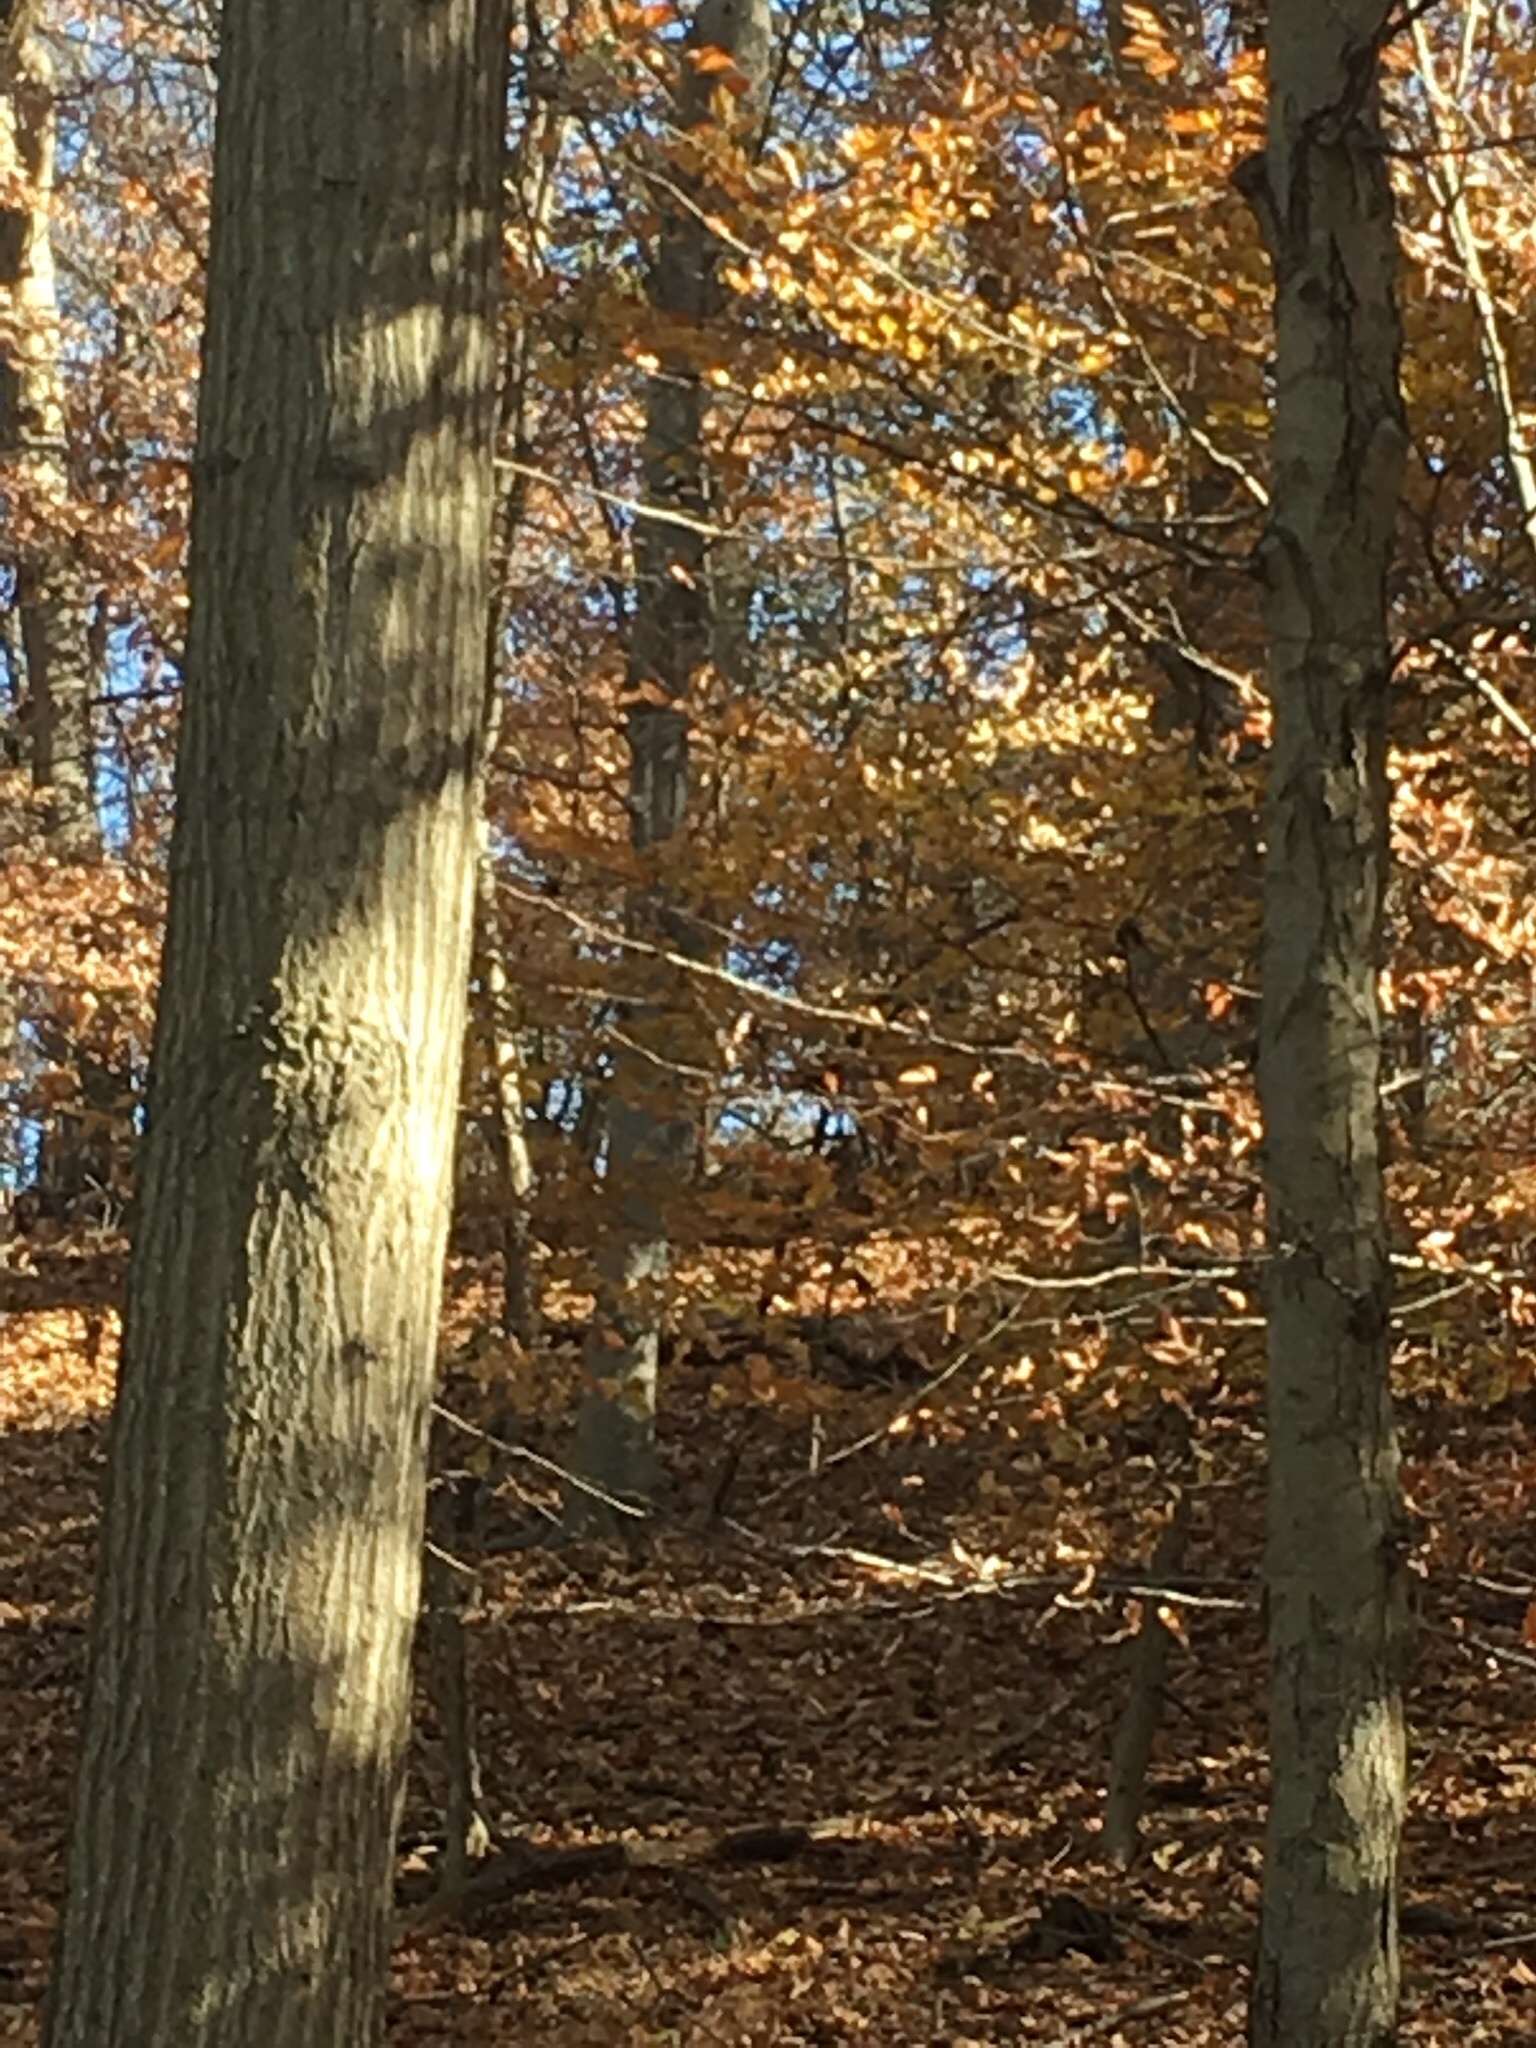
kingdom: Animalia
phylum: Chordata
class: Mammalia
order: Artiodactyla
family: Cervidae
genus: Odocoileus
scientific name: Odocoileus virginianus
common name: White-tailed deer
